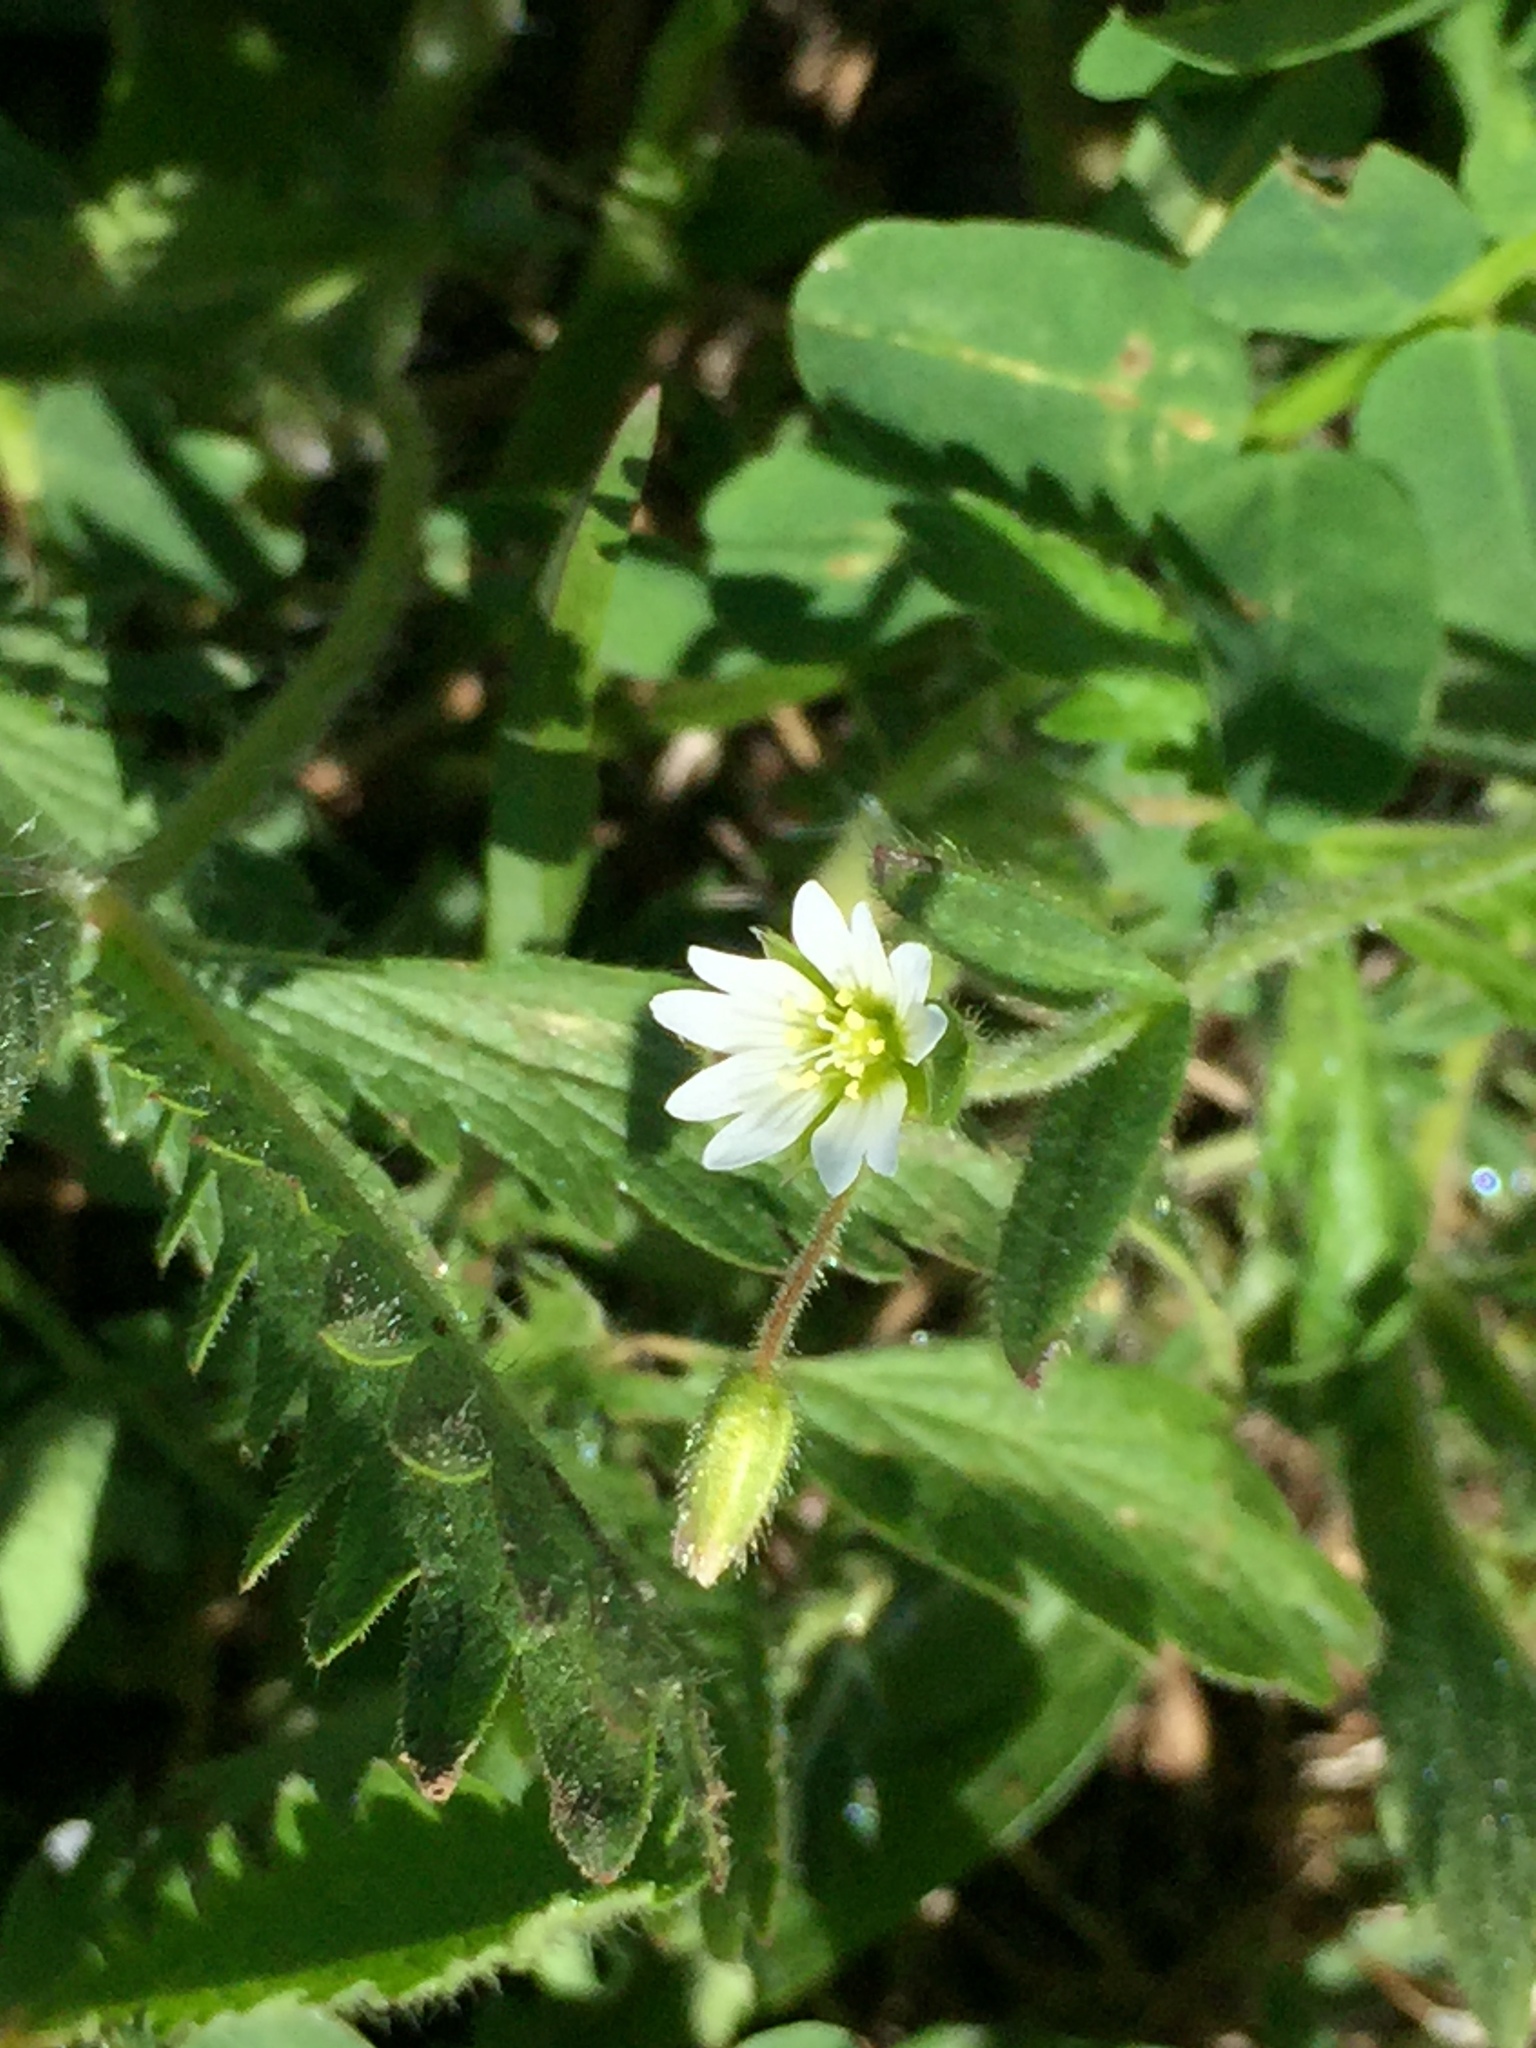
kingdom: Plantae
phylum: Tracheophyta
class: Magnoliopsida
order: Caryophyllales
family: Caryophyllaceae
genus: Cerastium
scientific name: Cerastium fontanum
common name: Common mouse-ear
